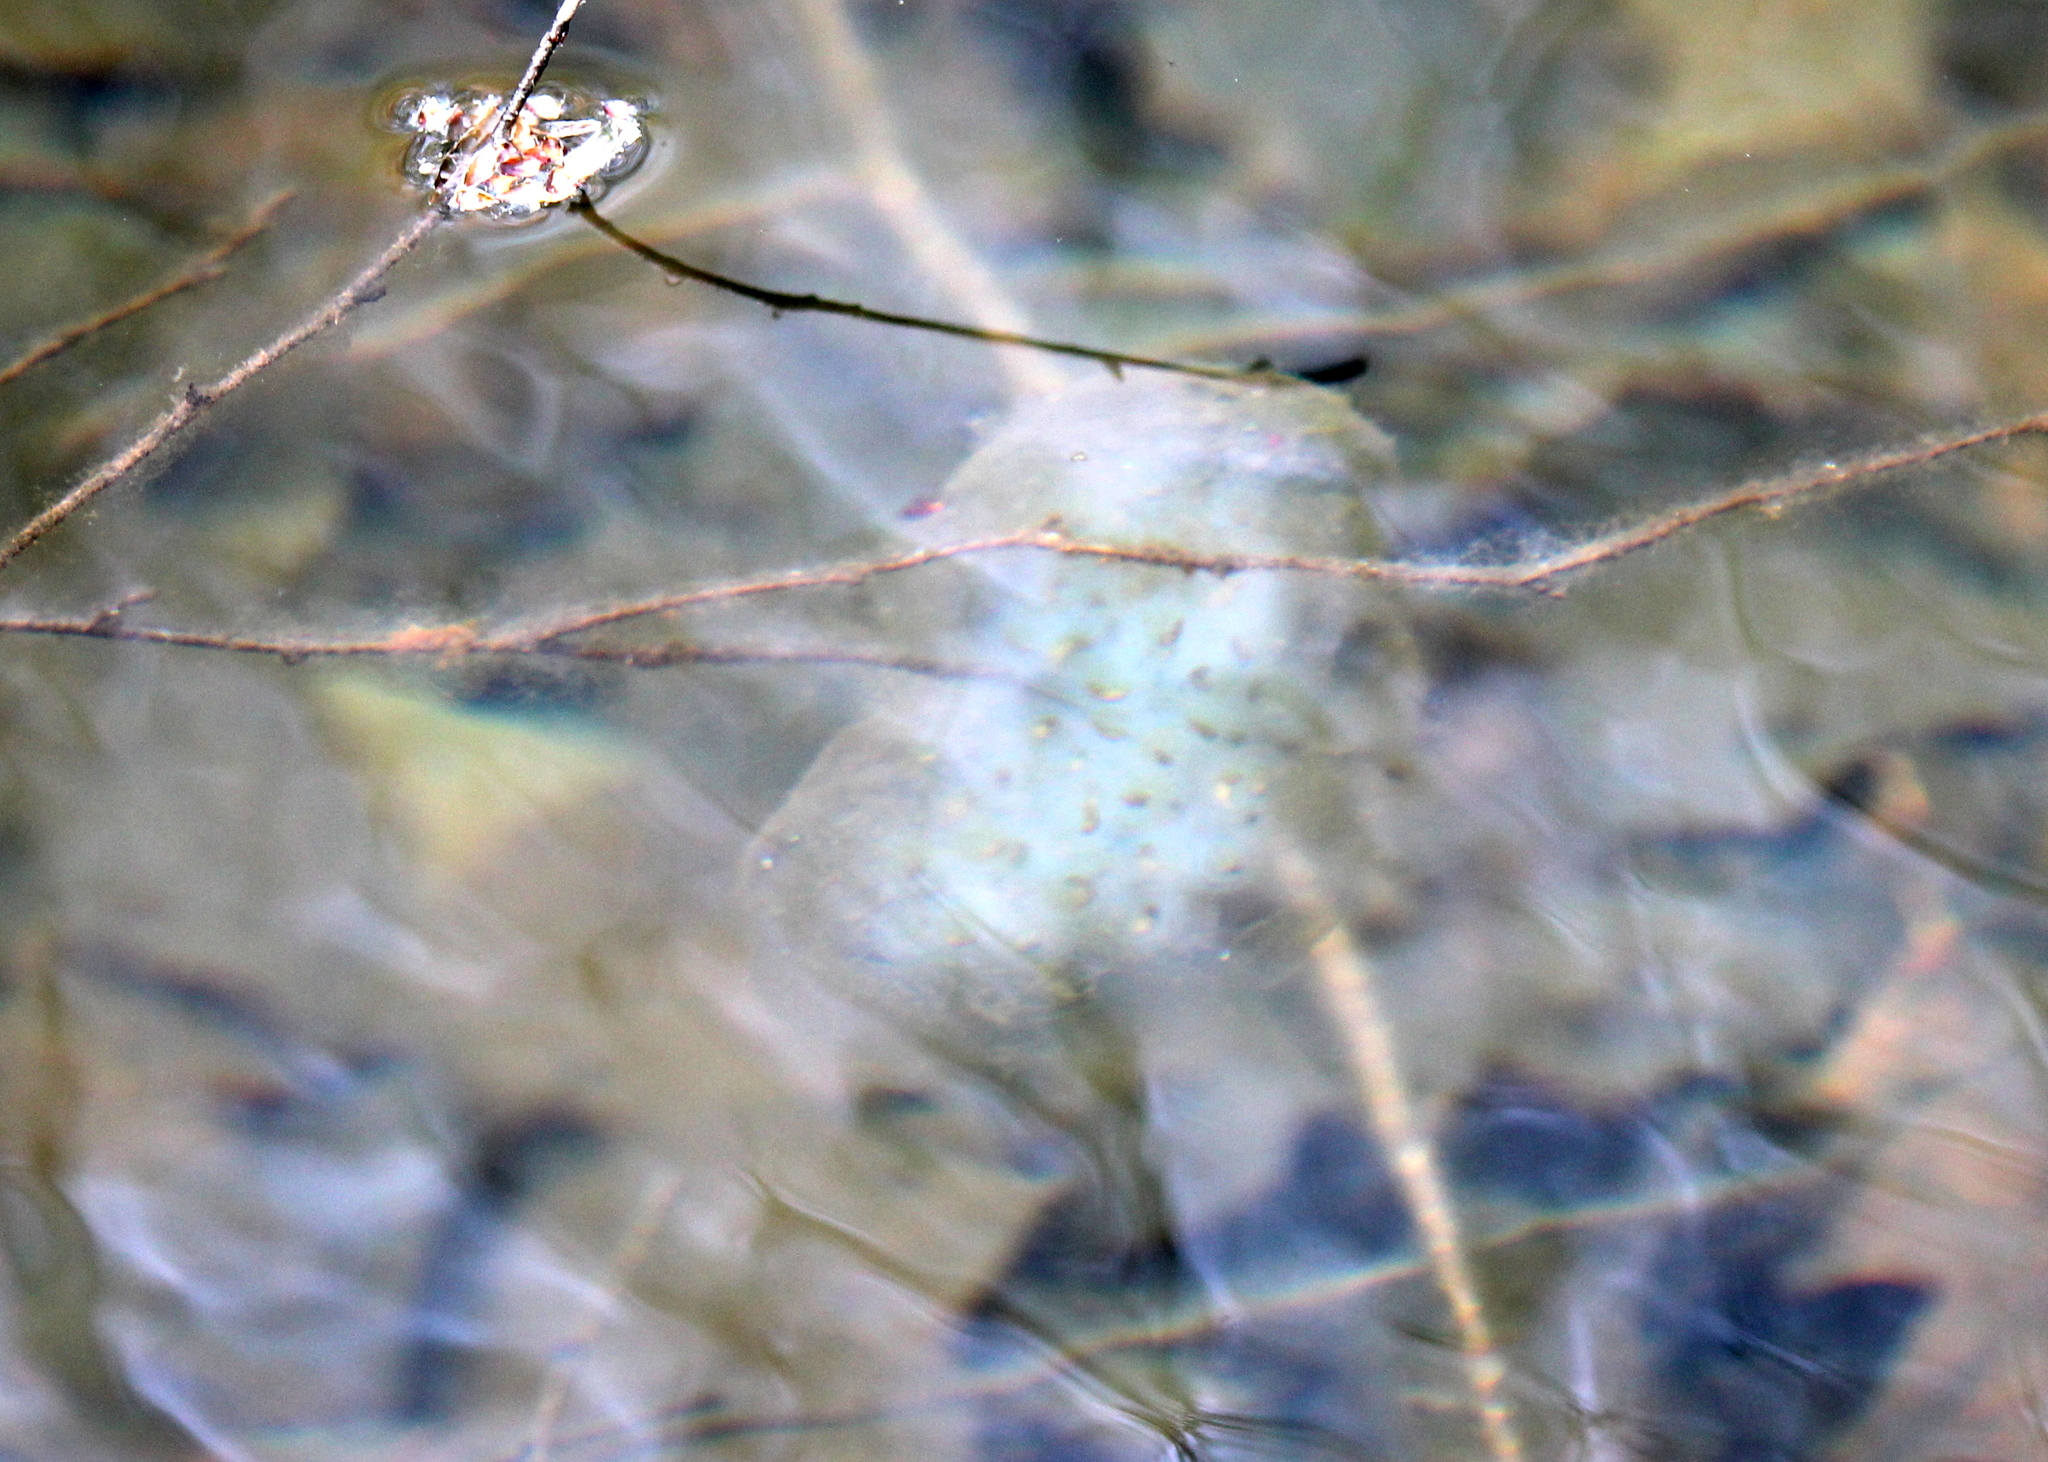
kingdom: Animalia
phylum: Chordata
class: Amphibia
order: Caudata
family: Ambystomatidae
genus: Ambystoma
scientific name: Ambystoma maculatum
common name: Spotted salamander
